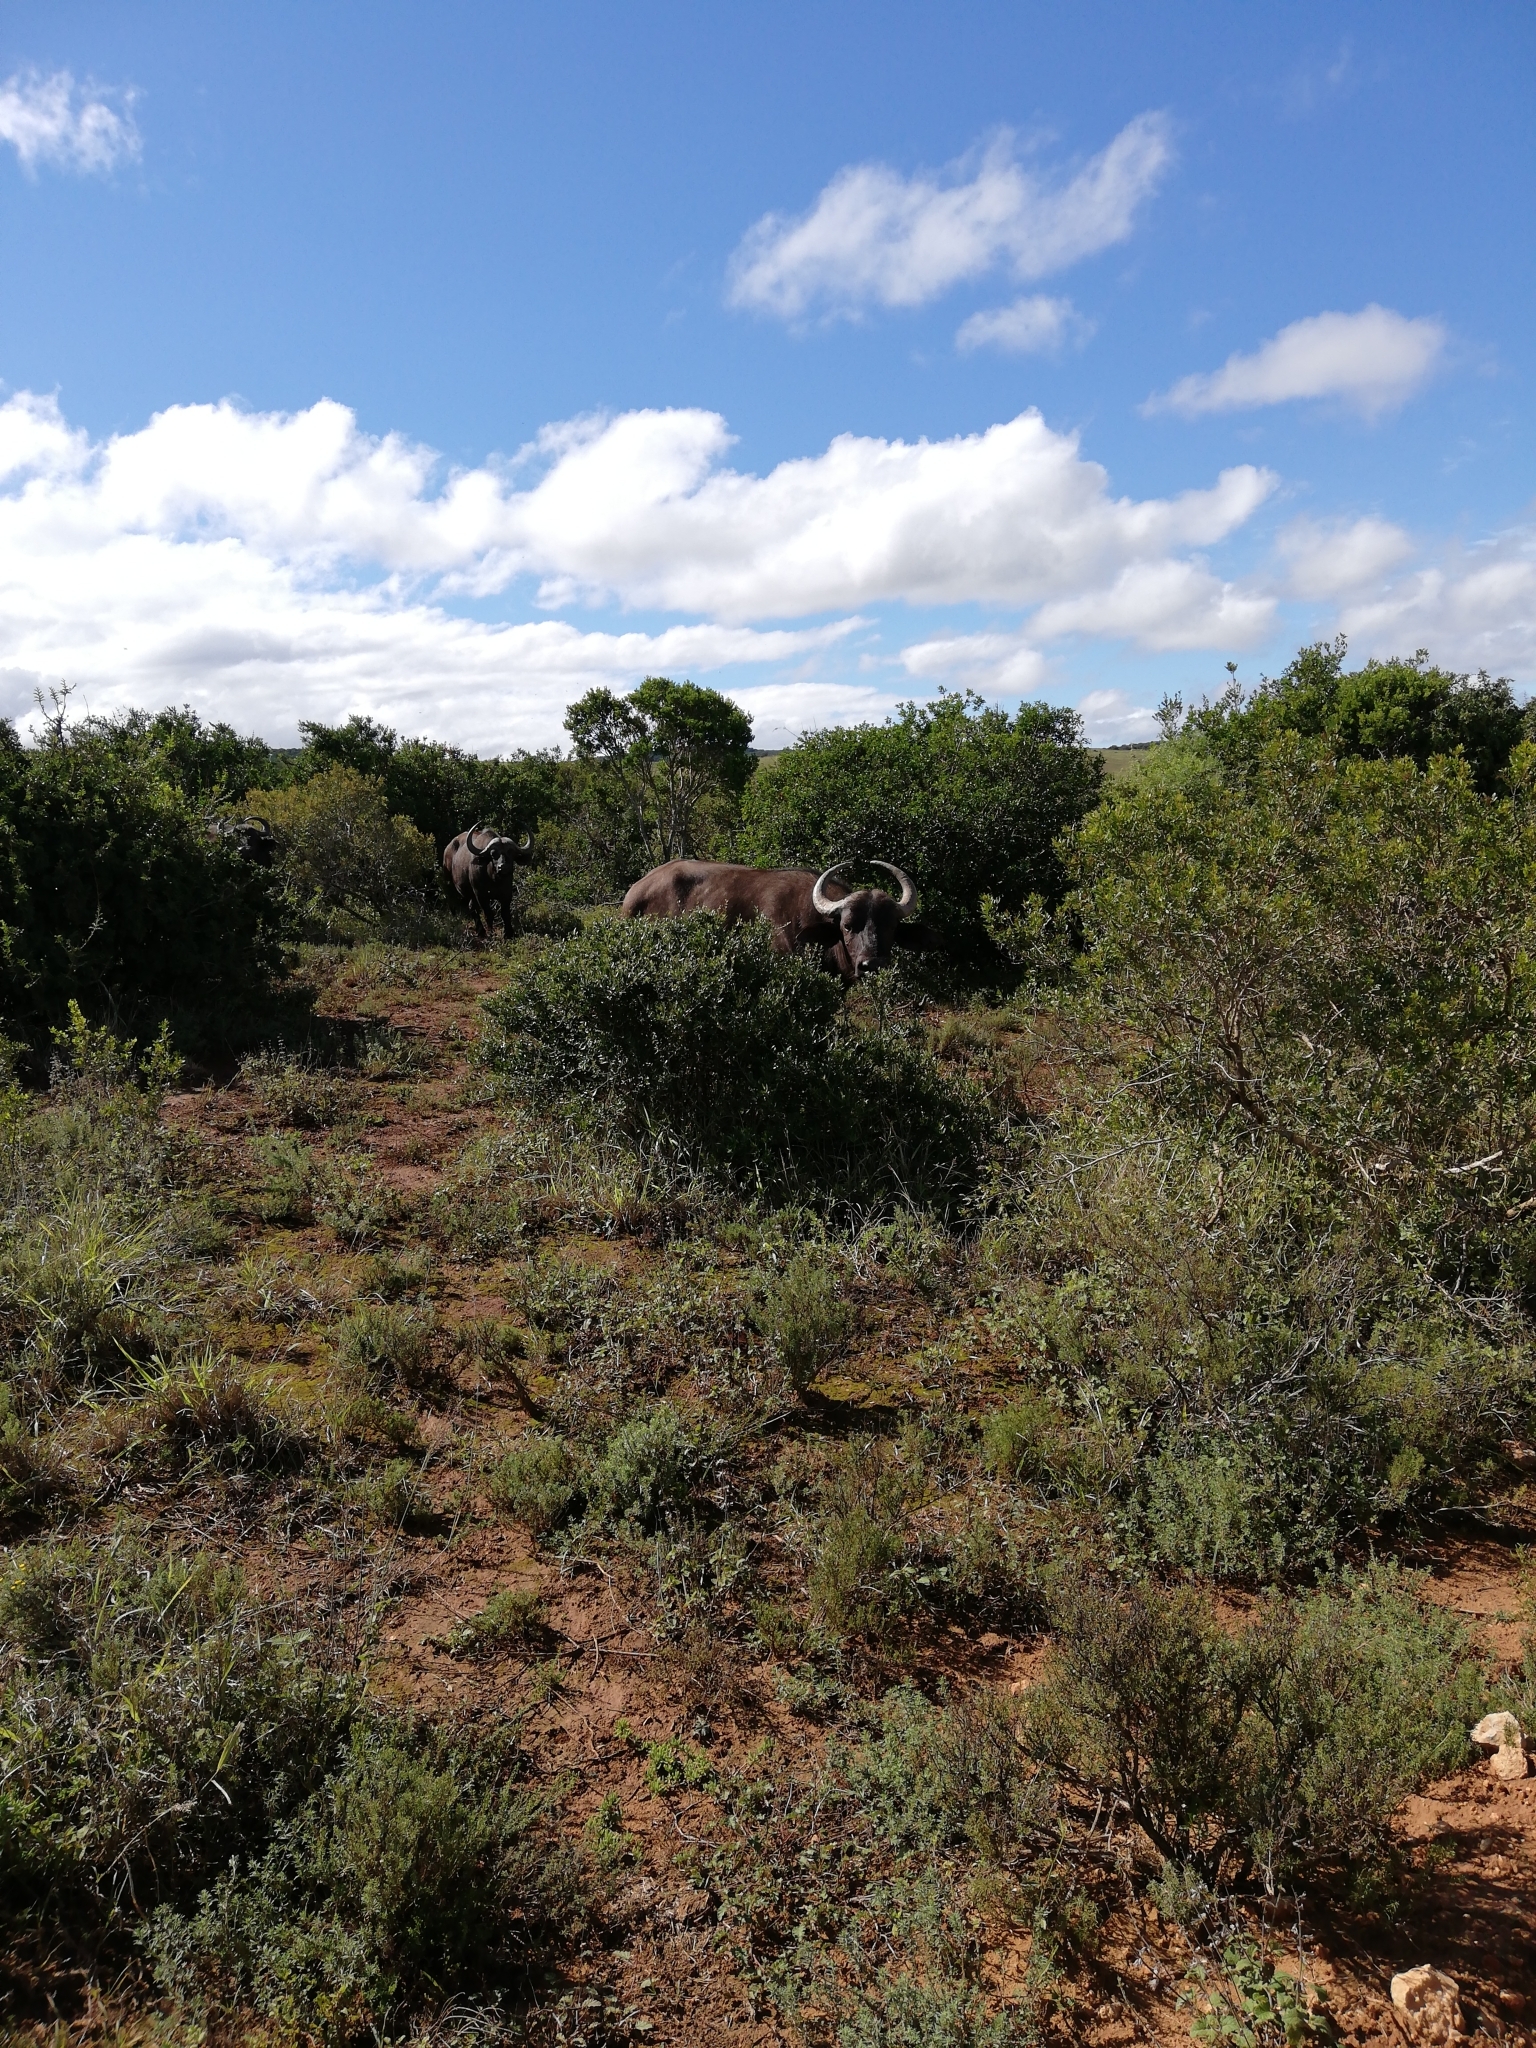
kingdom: Animalia
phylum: Chordata
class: Mammalia
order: Artiodactyla
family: Bovidae
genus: Syncerus
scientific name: Syncerus caffer
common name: African buffalo
